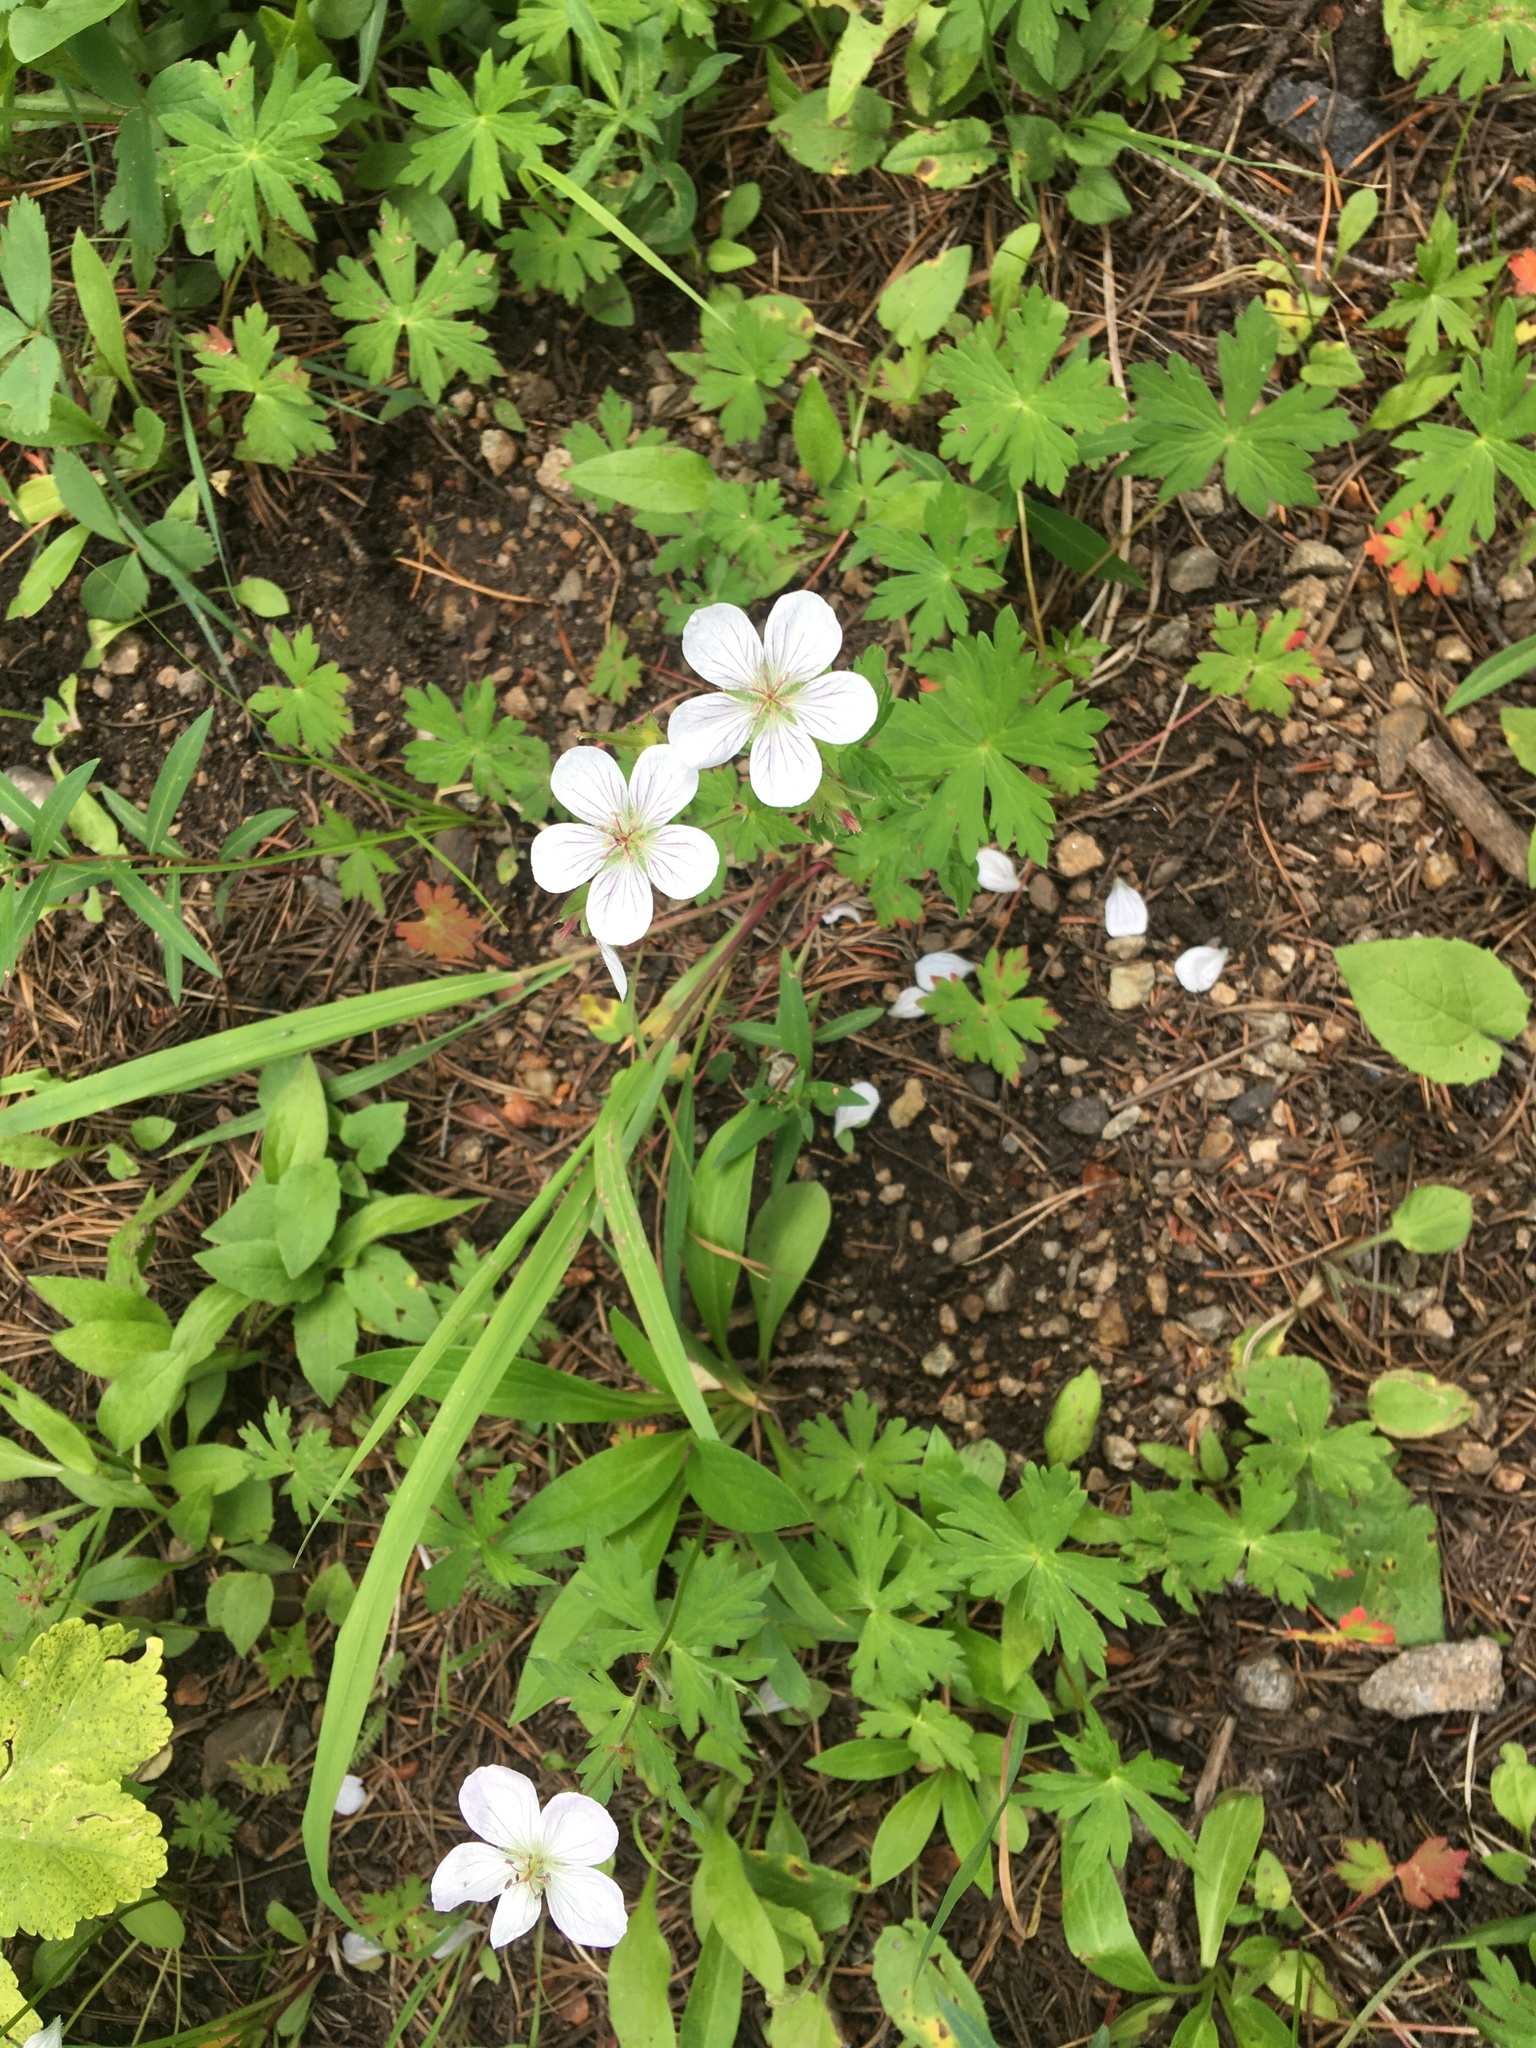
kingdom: Plantae
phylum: Tracheophyta
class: Magnoliopsida
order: Geraniales
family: Geraniaceae
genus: Geranium
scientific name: Geranium richardsonii
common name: Richardson's crane's-bill
